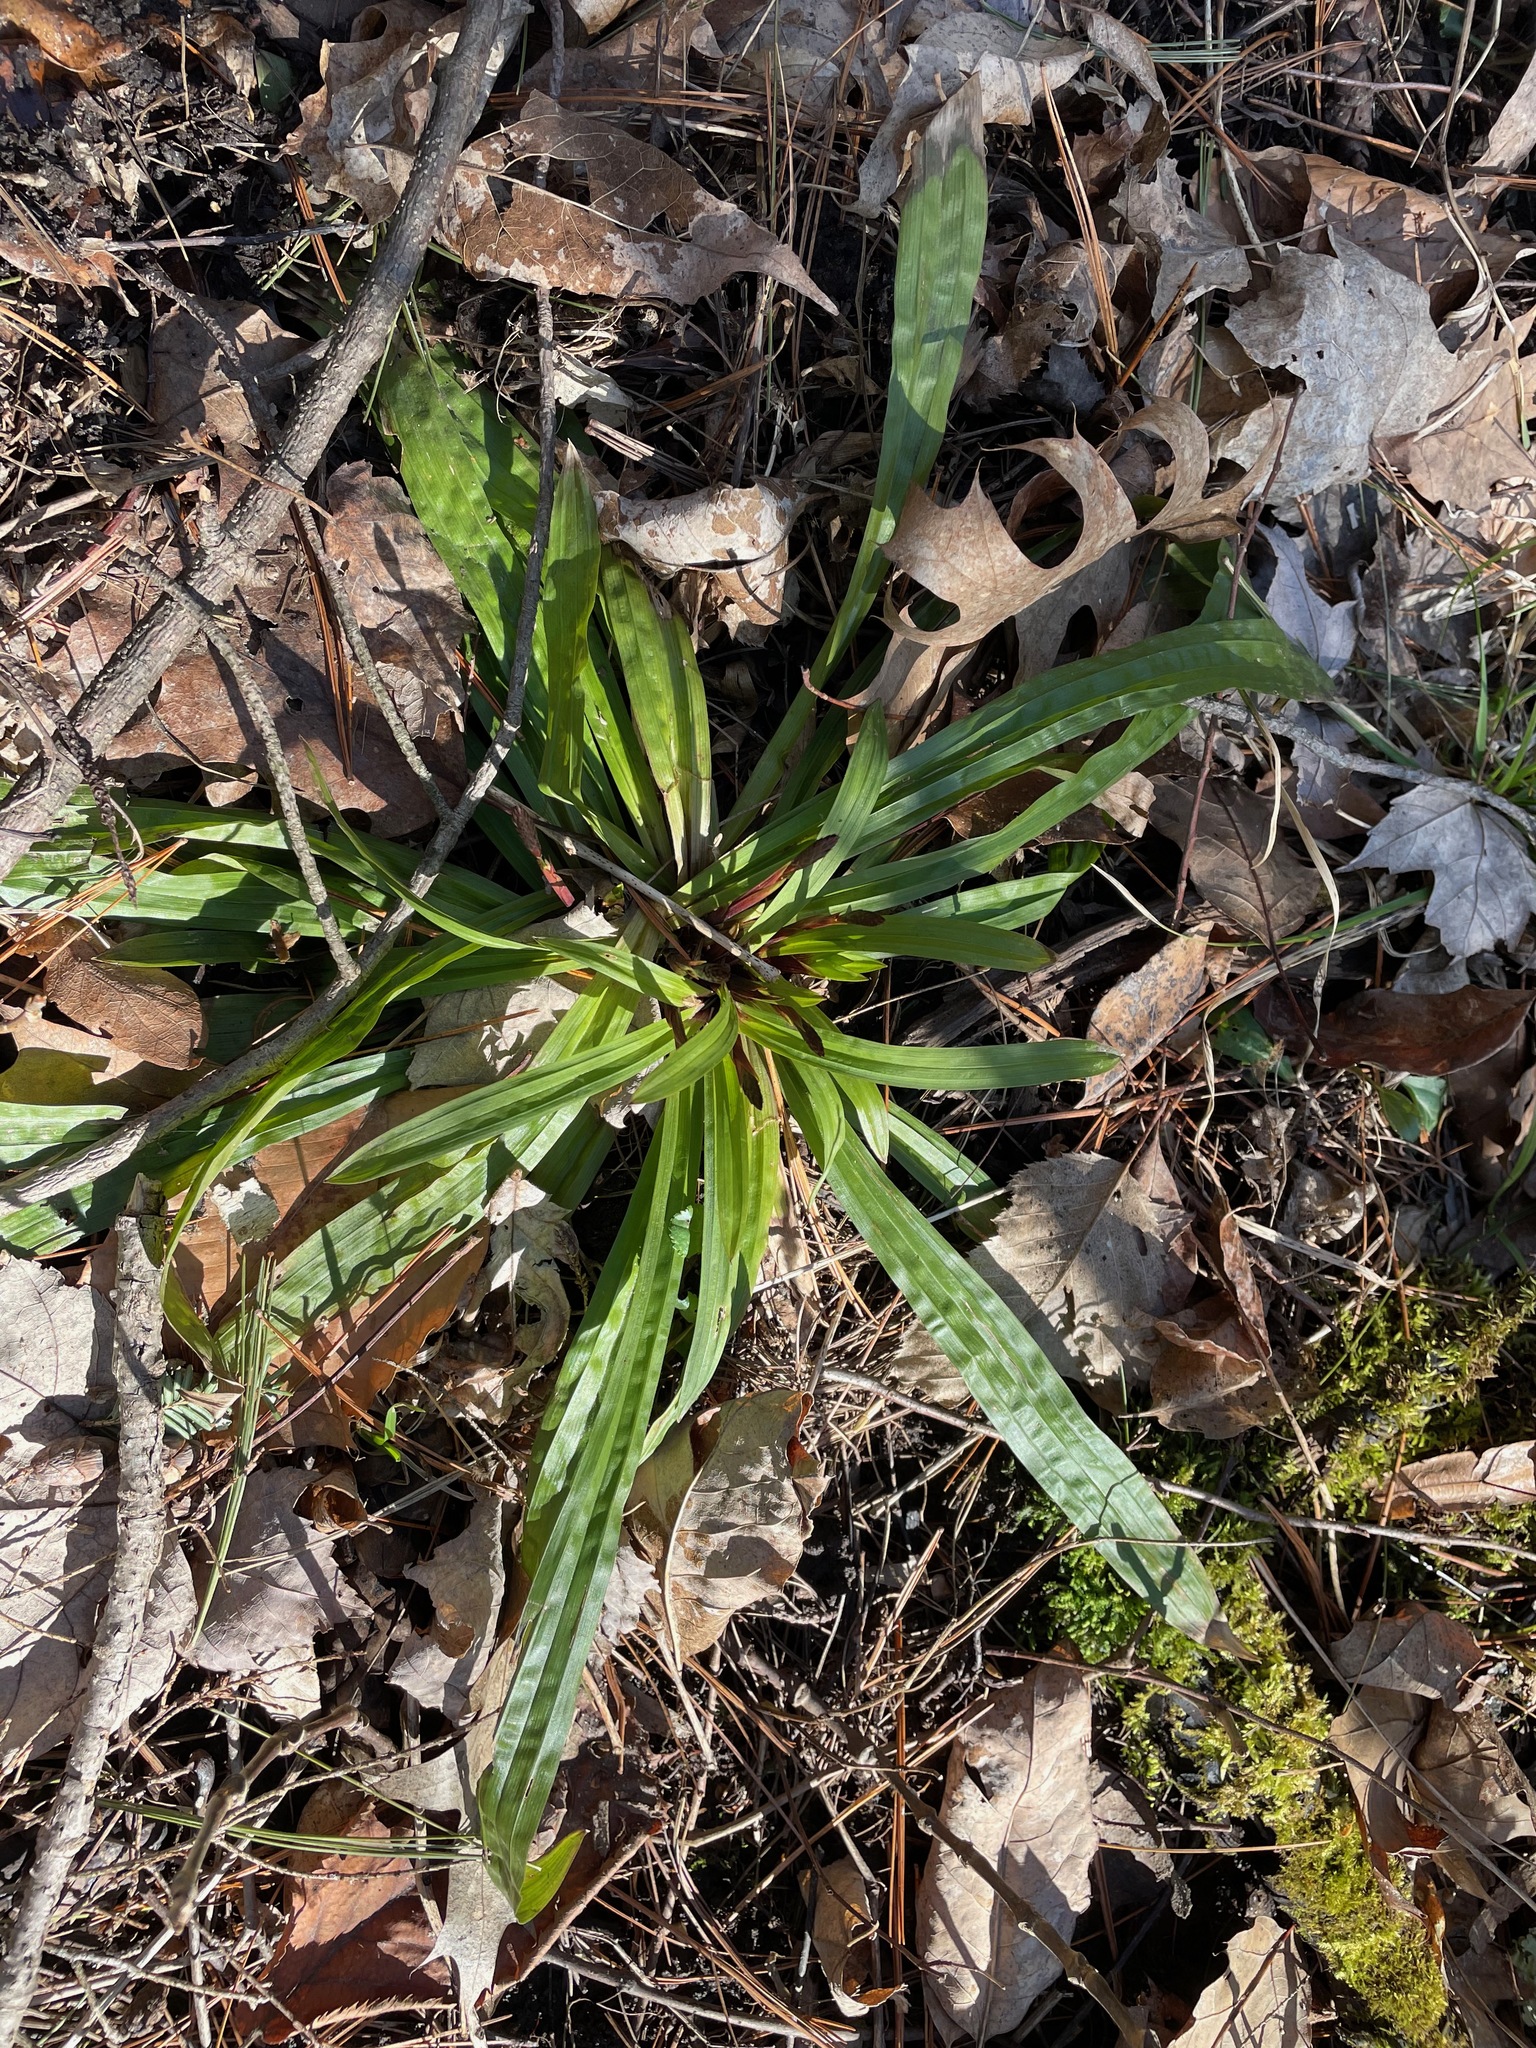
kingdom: Plantae
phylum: Tracheophyta
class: Liliopsida
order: Poales
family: Cyperaceae
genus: Carex
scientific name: Carex plantaginea
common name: Plantain-leaved sedge
